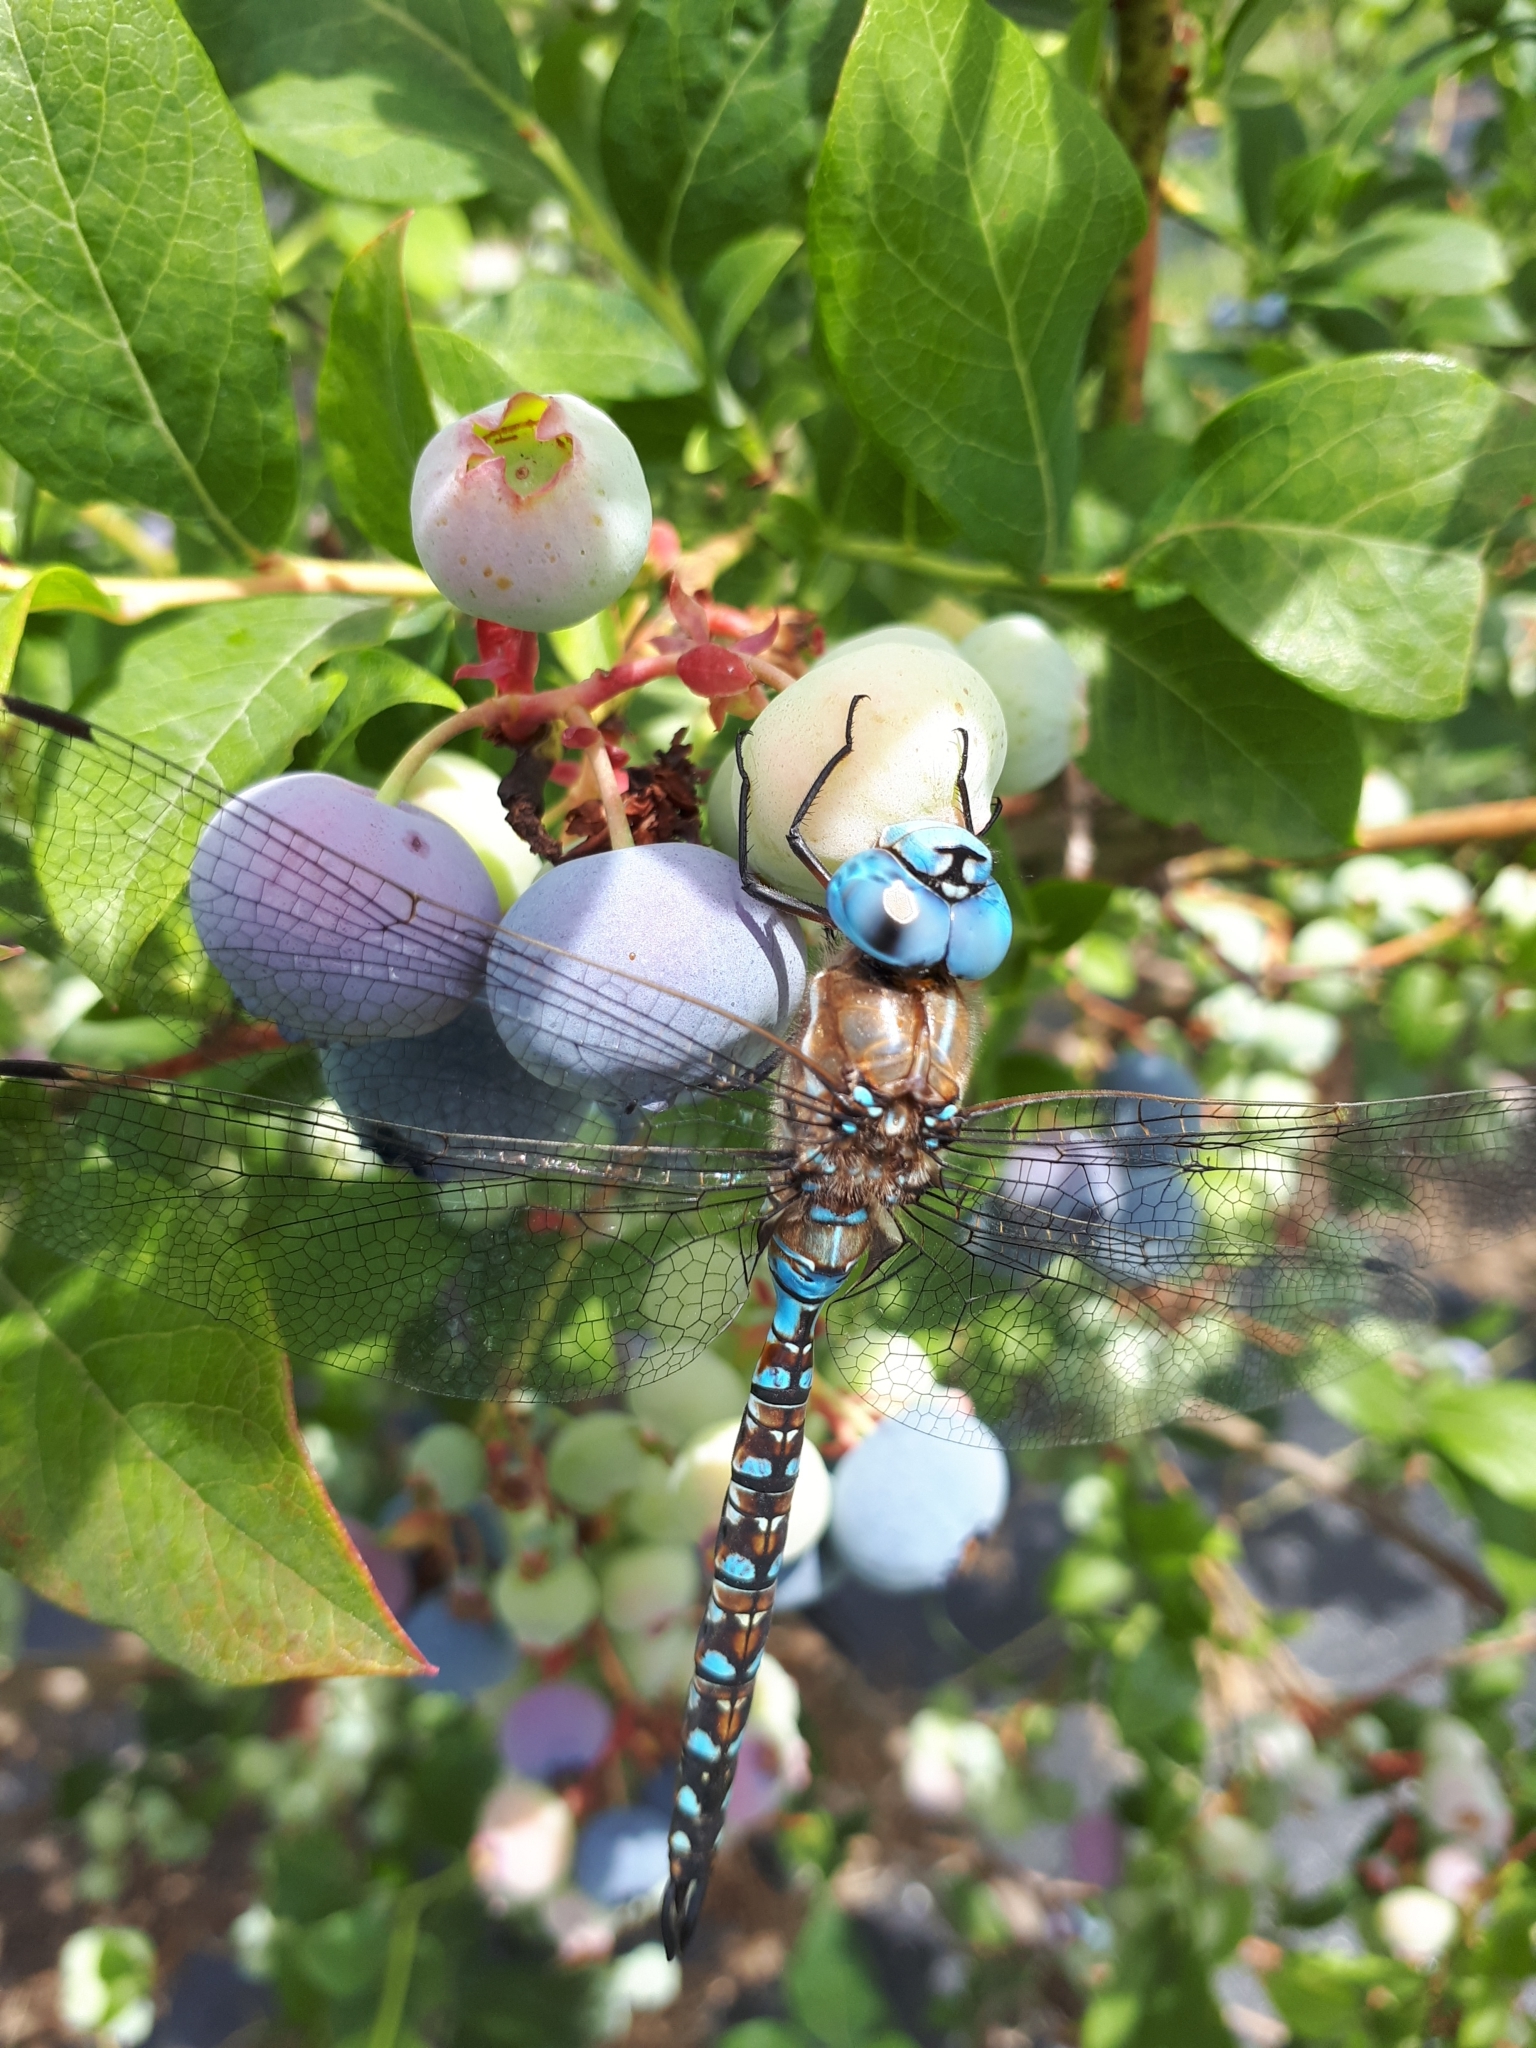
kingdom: Animalia
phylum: Arthropoda
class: Insecta
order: Odonata
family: Aeshnidae
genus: Rhionaeschna
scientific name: Rhionaeschna multicolor
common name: Blue-eyed darner
